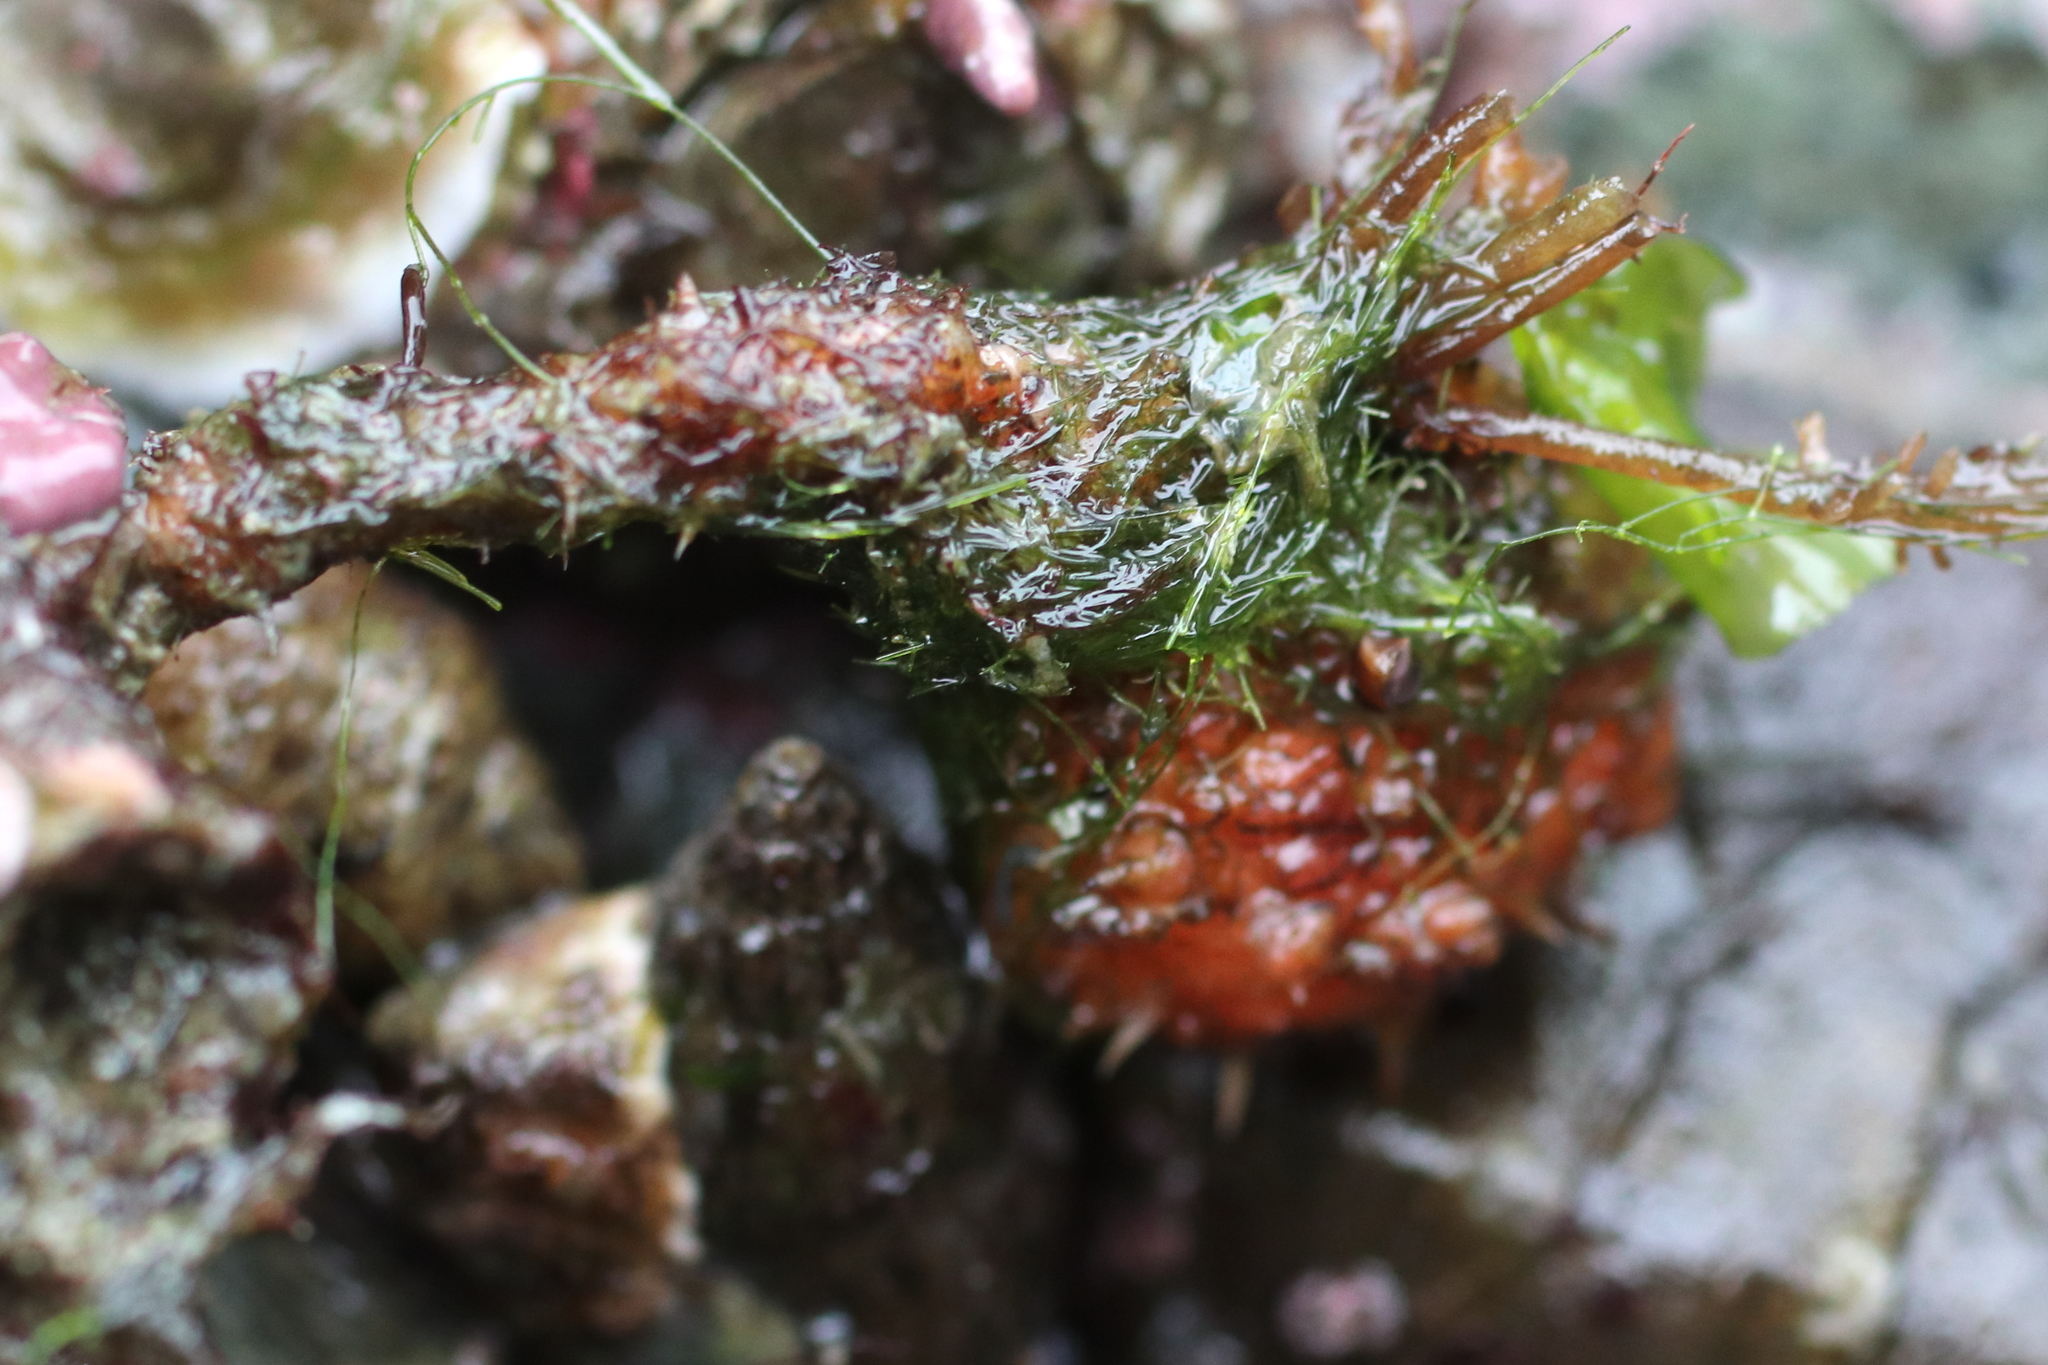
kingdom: Animalia
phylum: Chordata
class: Ascidiacea
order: Stolidobranchia
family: Pyuridae
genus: Boltenia
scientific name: Boltenia villosa
